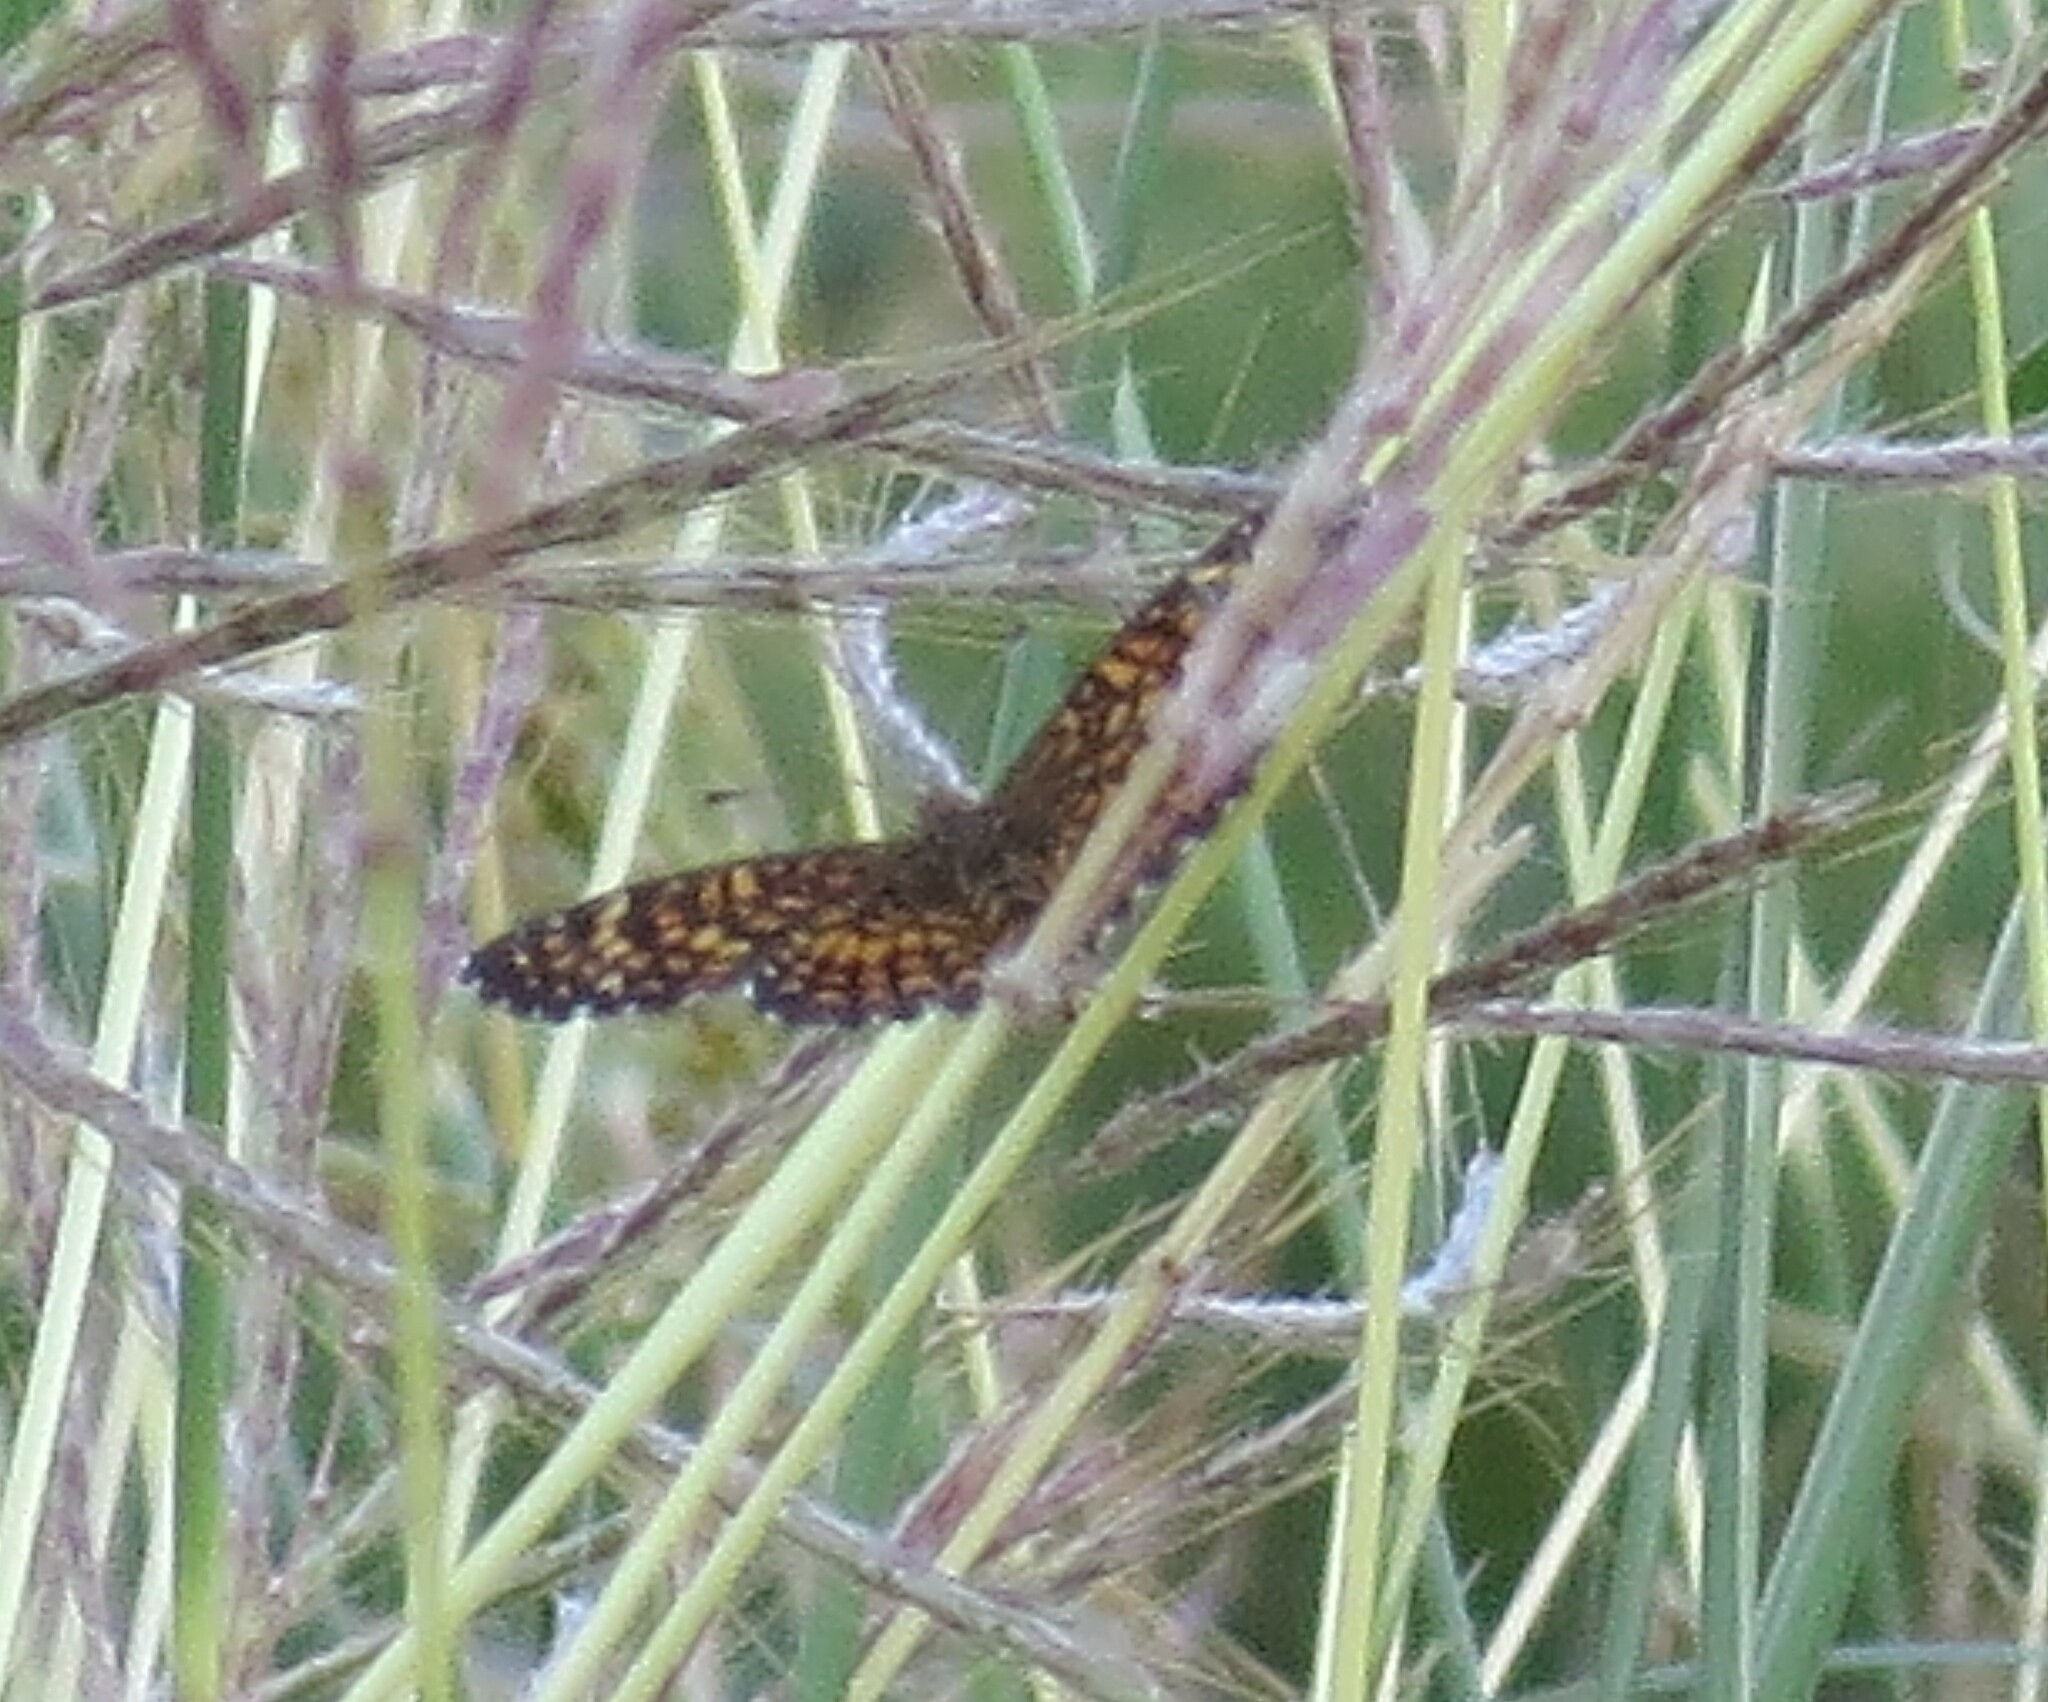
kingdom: Animalia
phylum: Arthropoda
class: Insecta
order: Lepidoptera
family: Nymphalidae
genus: Texola
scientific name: Texola elada
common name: Elada checkerspot
